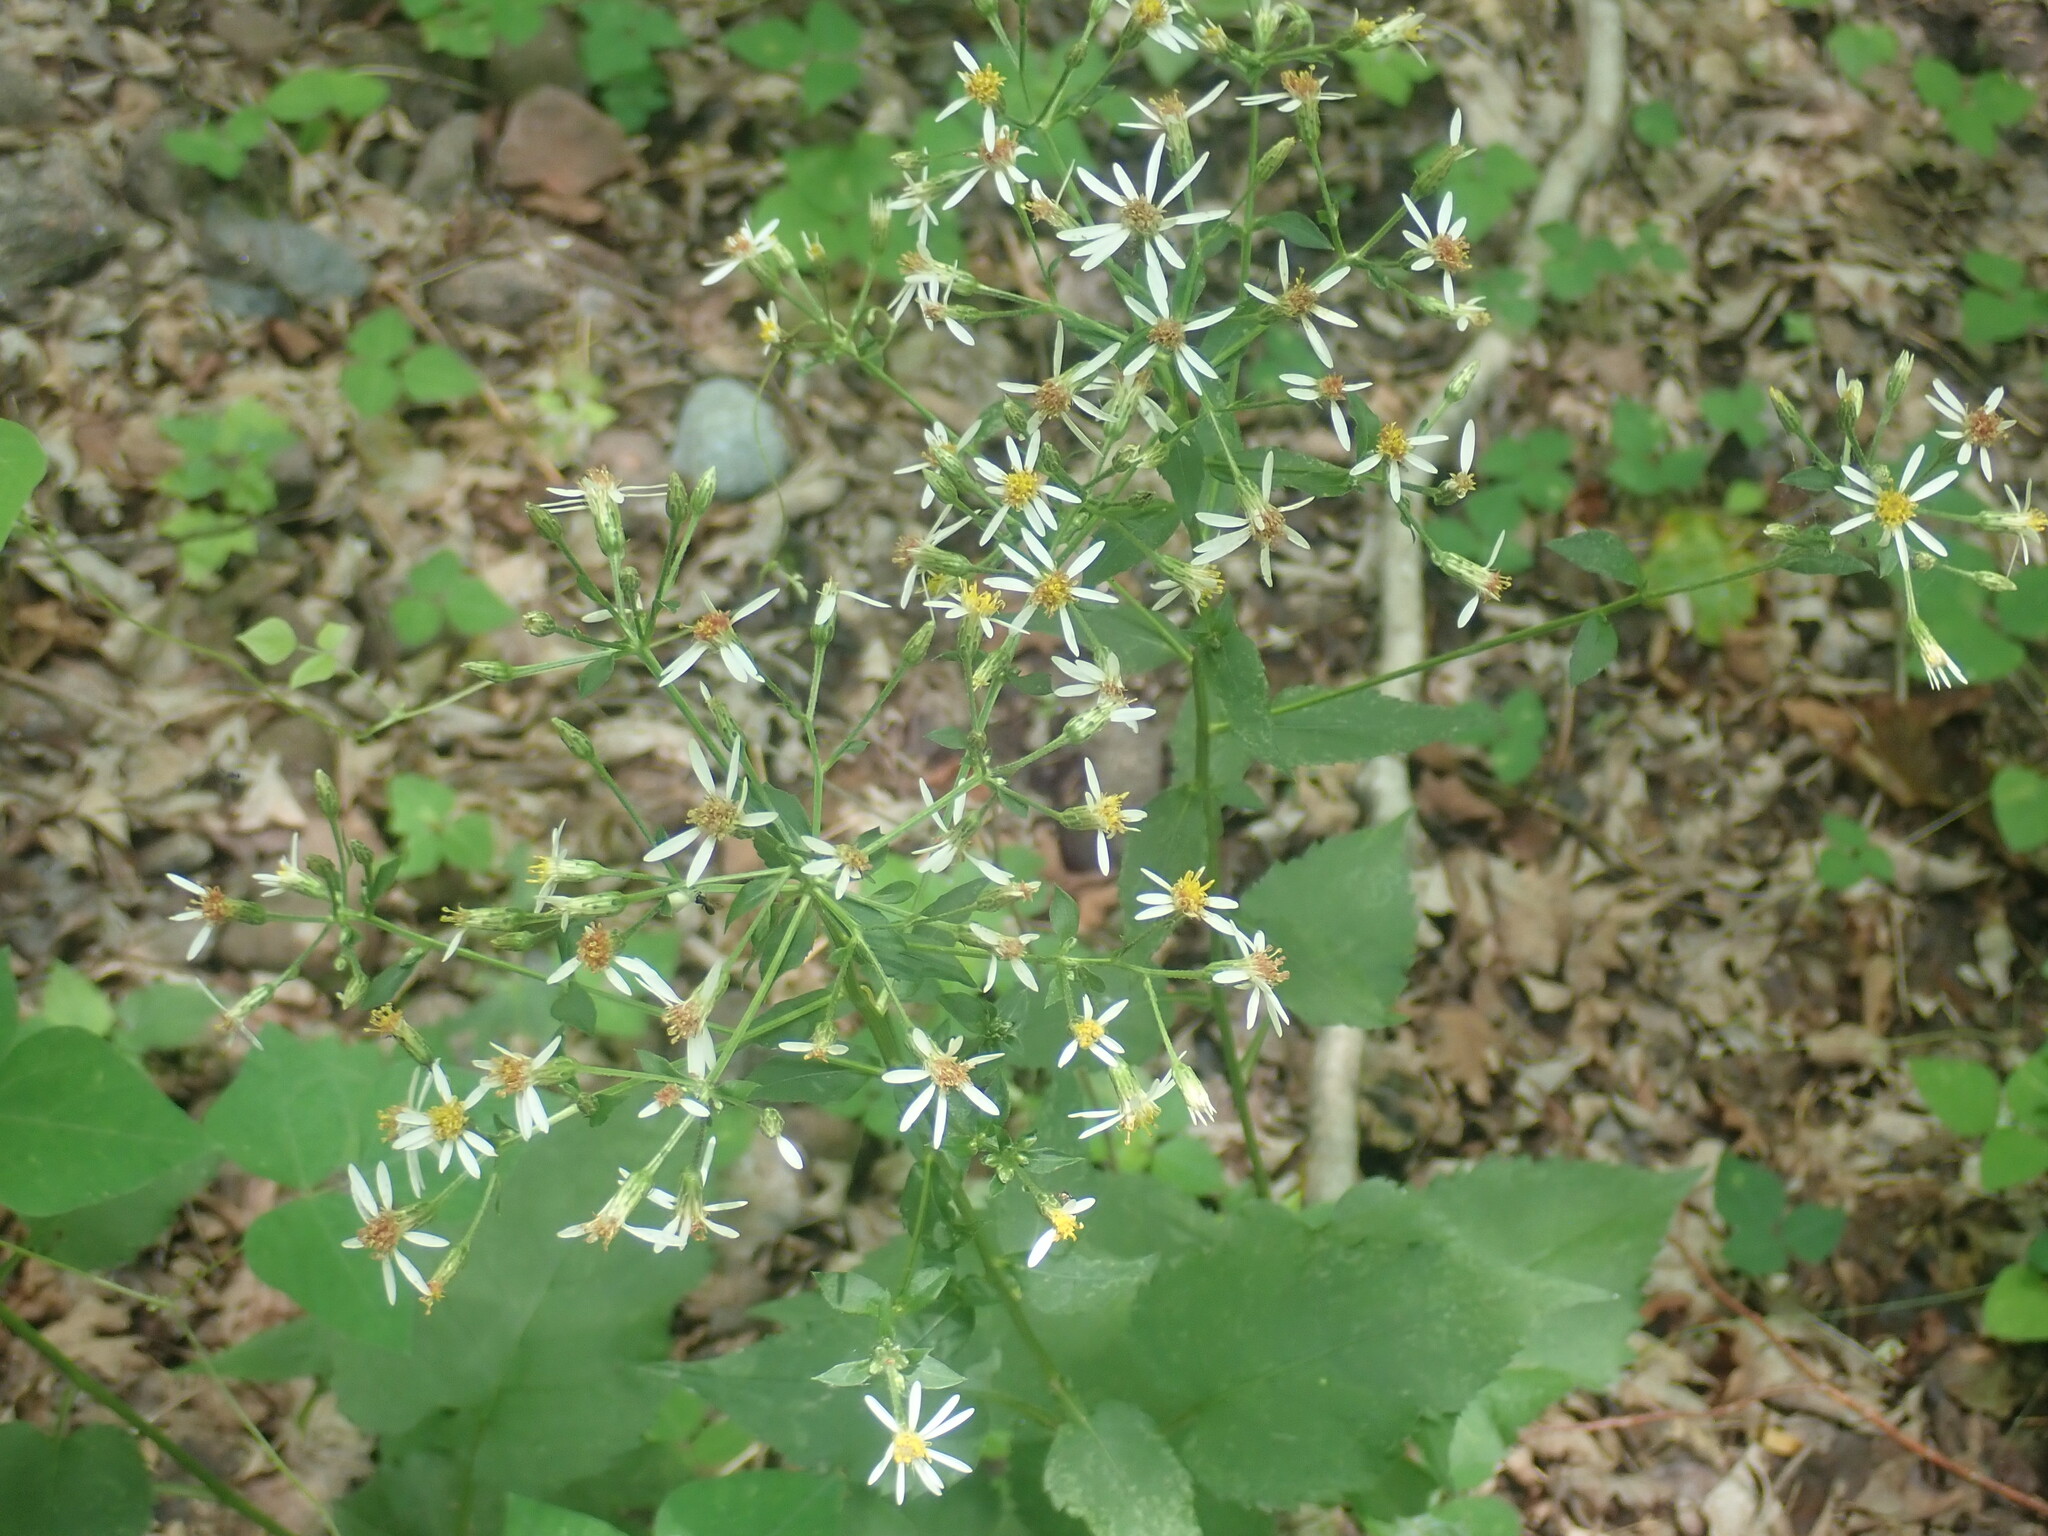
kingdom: Plantae
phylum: Tracheophyta
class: Magnoliopsida
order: Asterales
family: Asteraceae
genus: Eurybia
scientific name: Eurybia macrophylla
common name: Big-leaved aster
